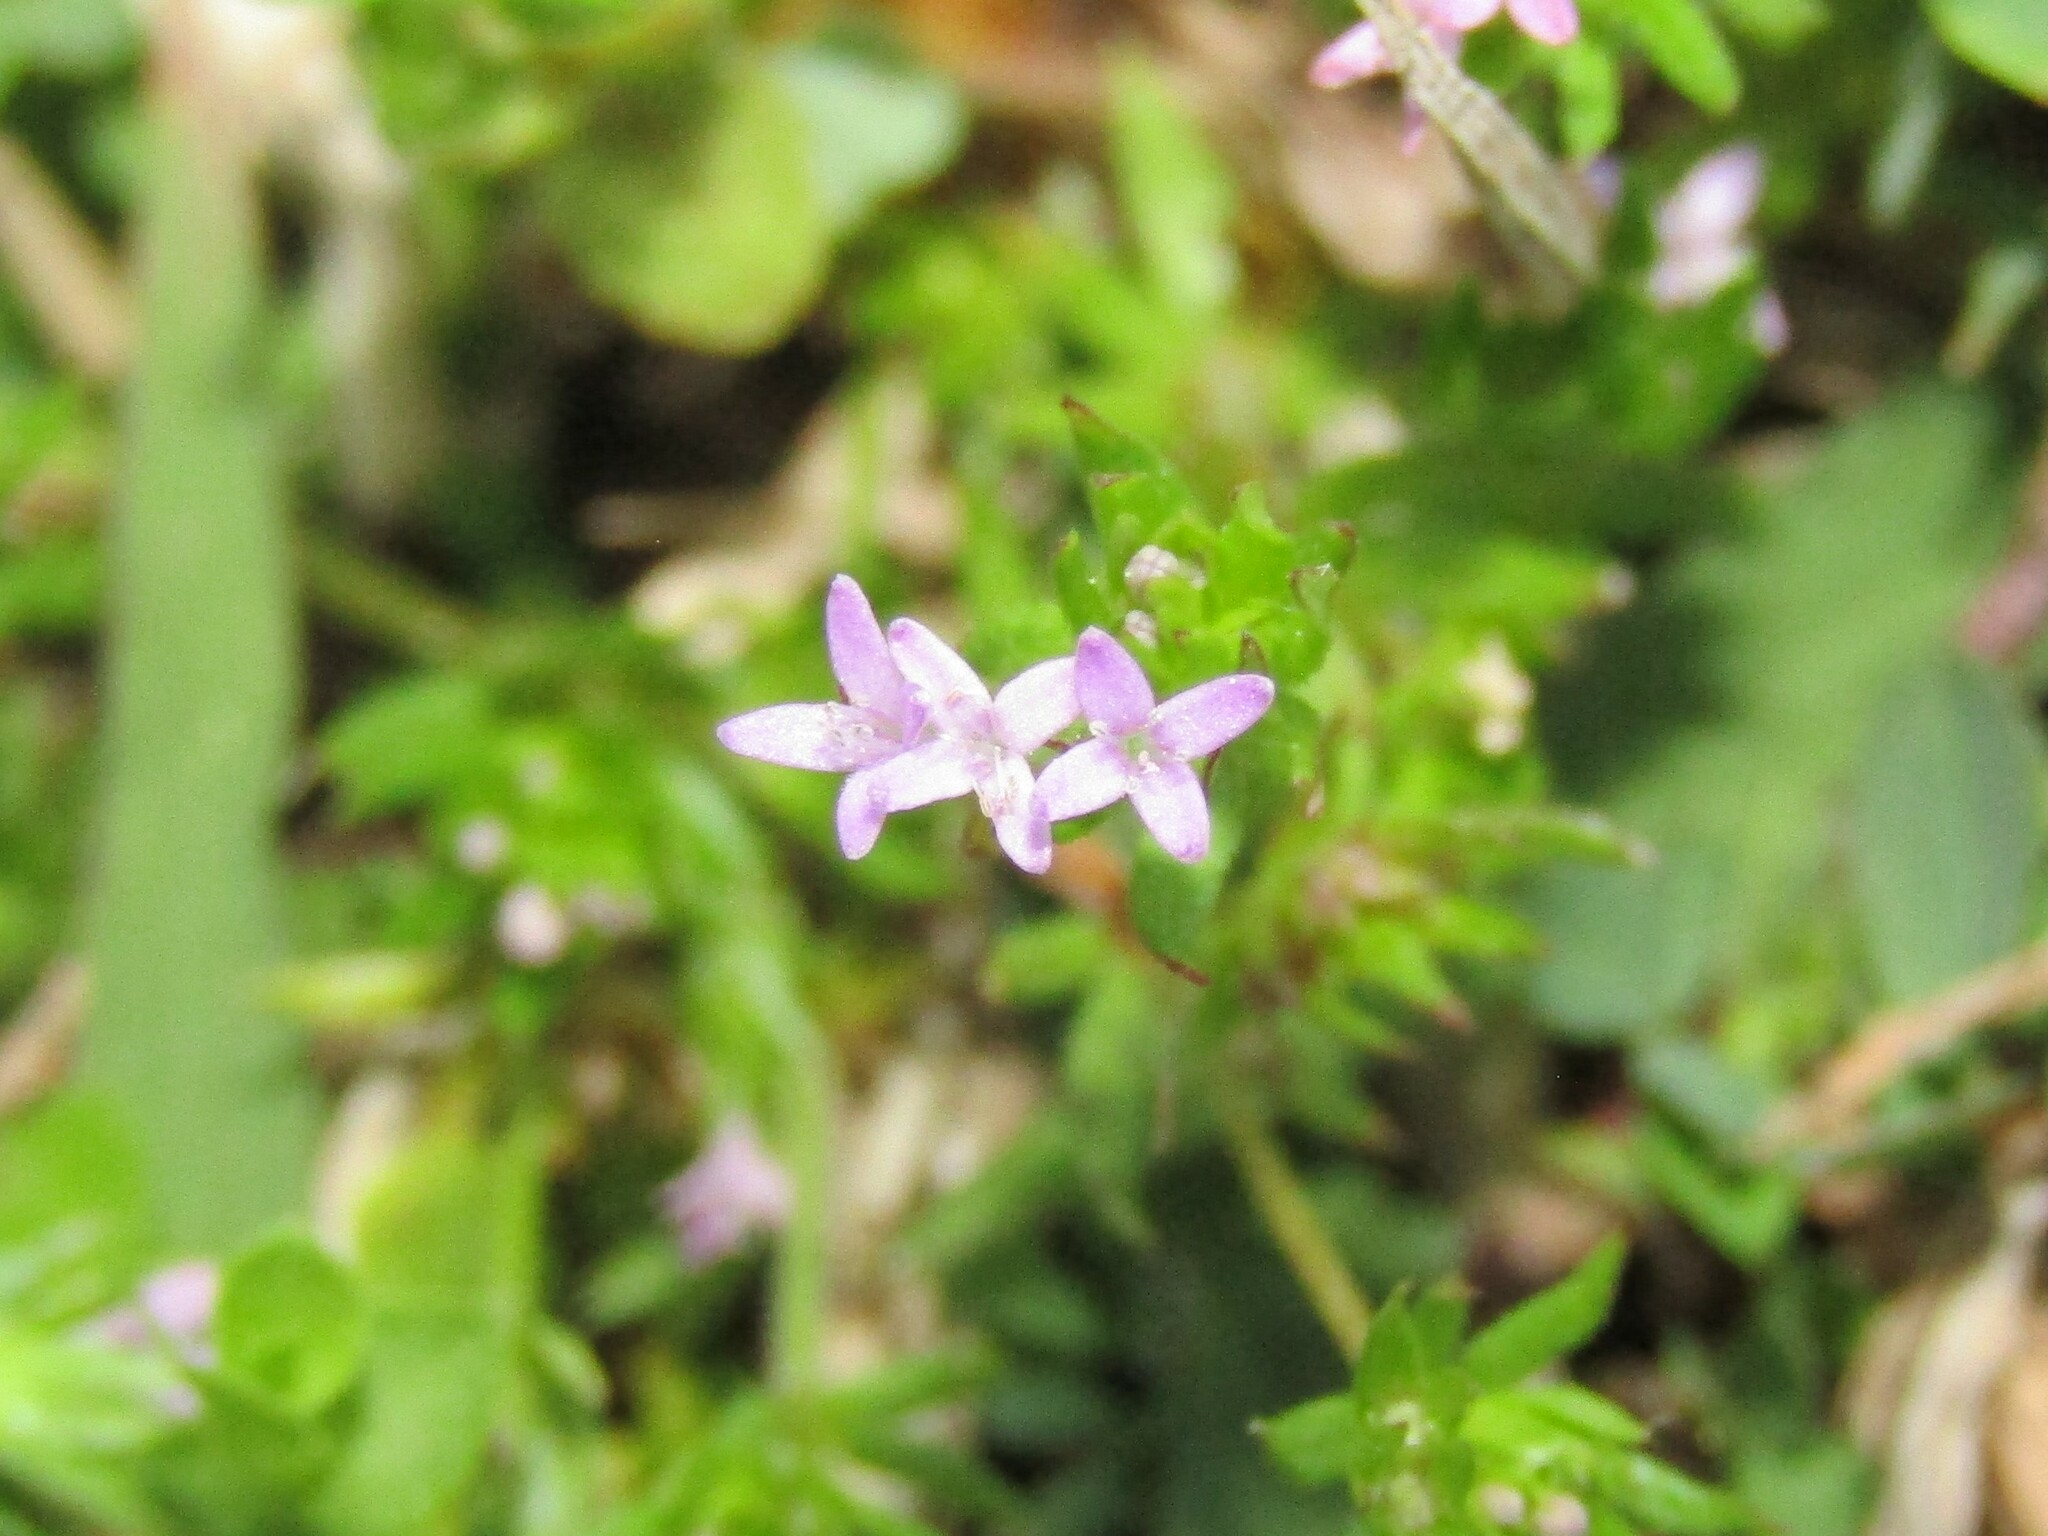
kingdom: Plantae
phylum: Tracheophyta
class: Magnoliopsida
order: Gentianales
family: Rubiaceae
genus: Sherardia
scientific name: Sherardia arvensis
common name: Field madder
